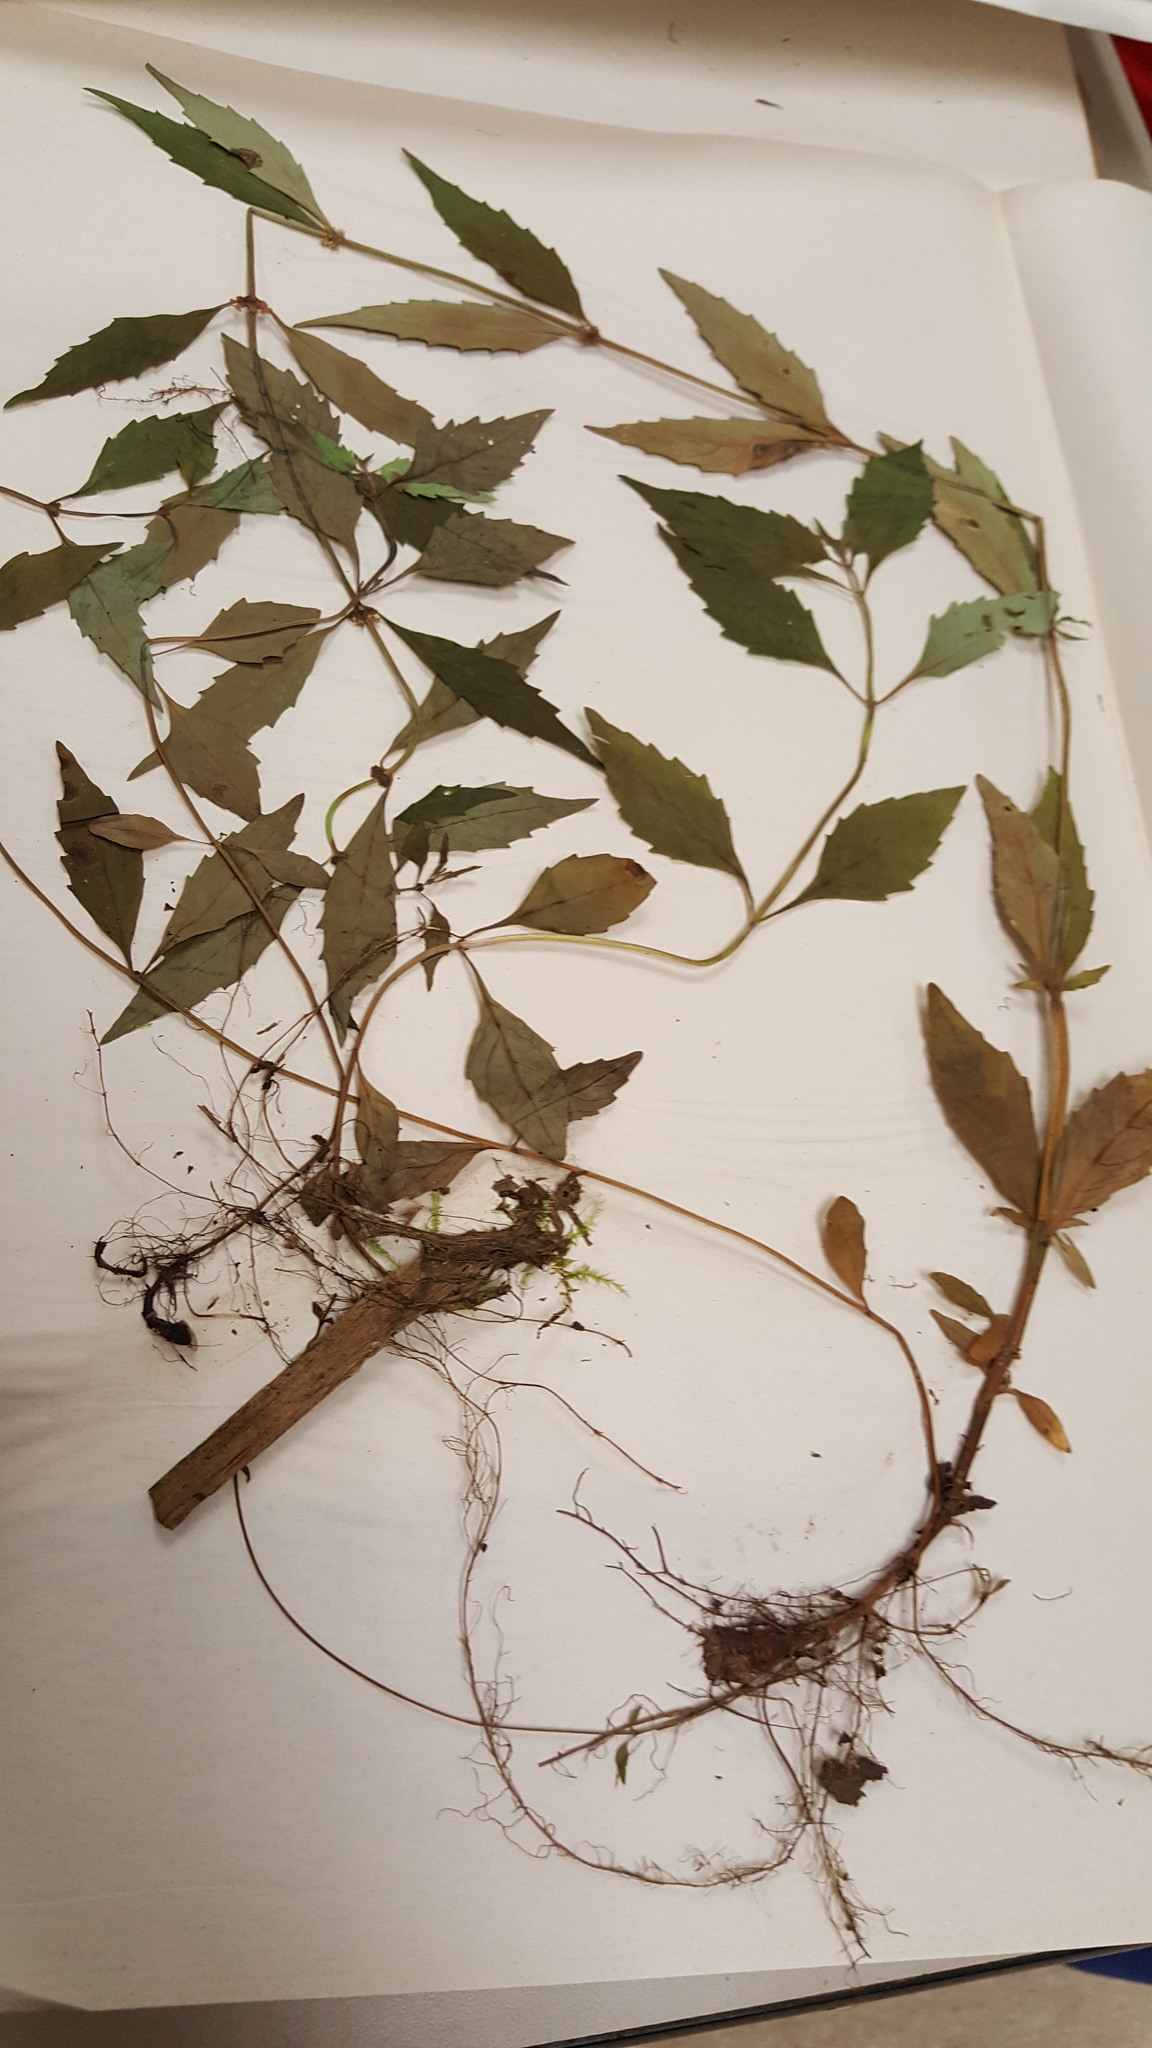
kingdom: Plantae
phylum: Tracheophyta
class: Magnoliopsida
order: Lamiales
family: Lamiaceae
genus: Lycopus
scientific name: Lycopus uniflorus
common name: Northern bugleweed
